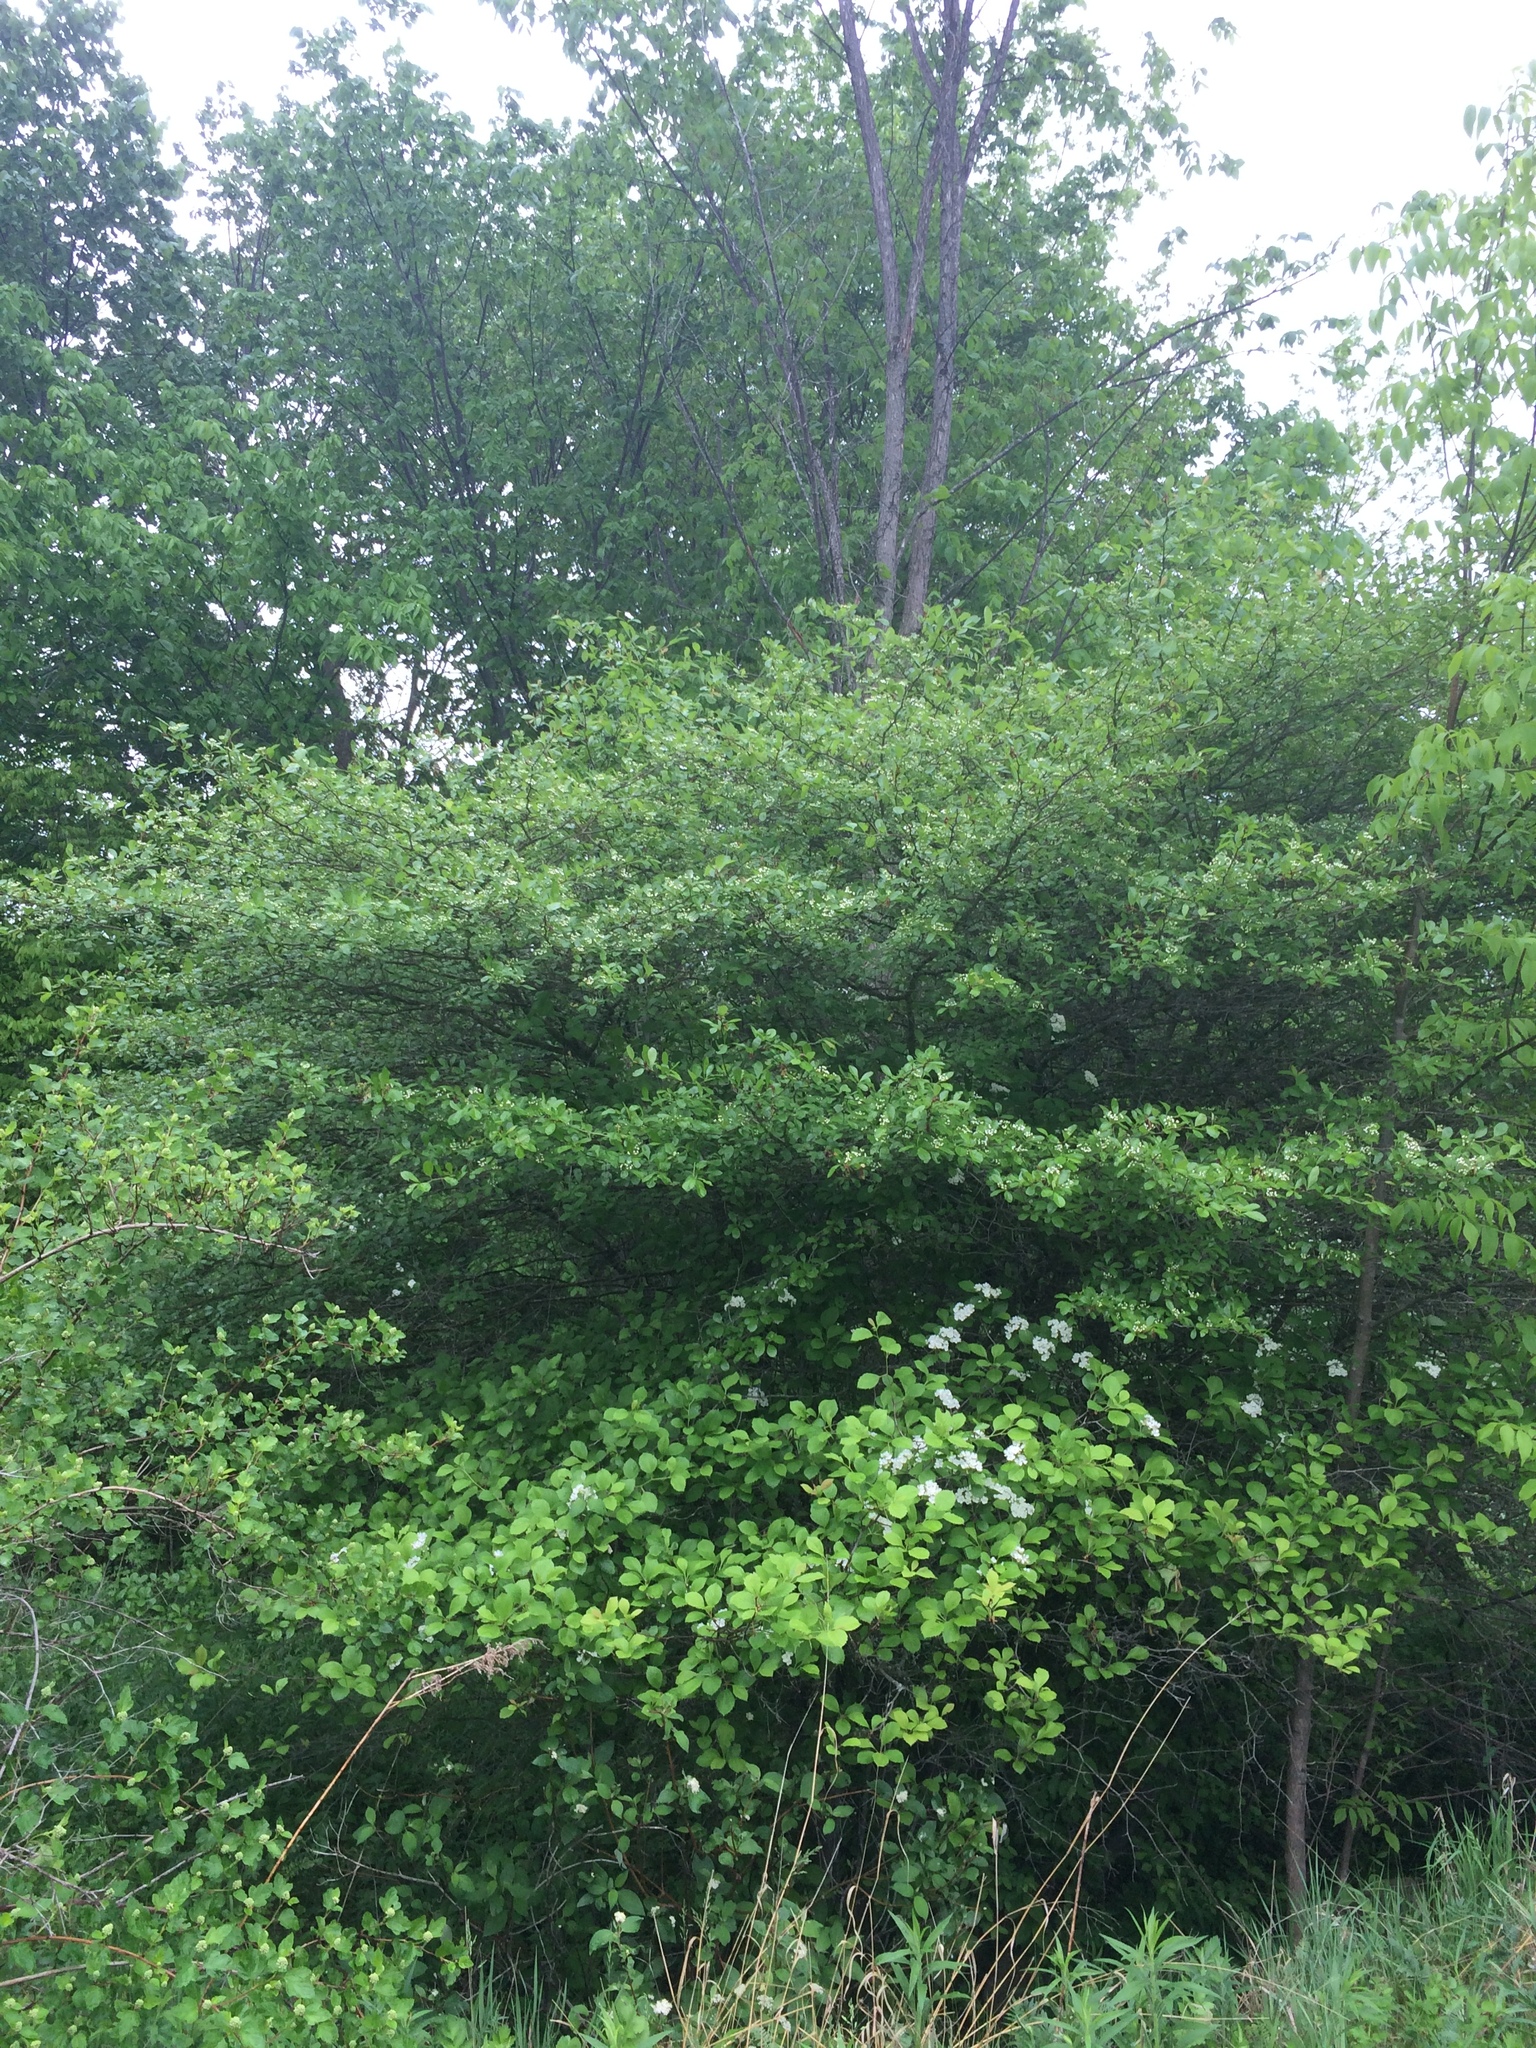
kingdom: Plantae
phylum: Tracheophyta
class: Magnoliopsida
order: Rosales
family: Rosaceae
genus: Crataegus
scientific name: Crataegus crus-galli
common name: Cockspurthorn
